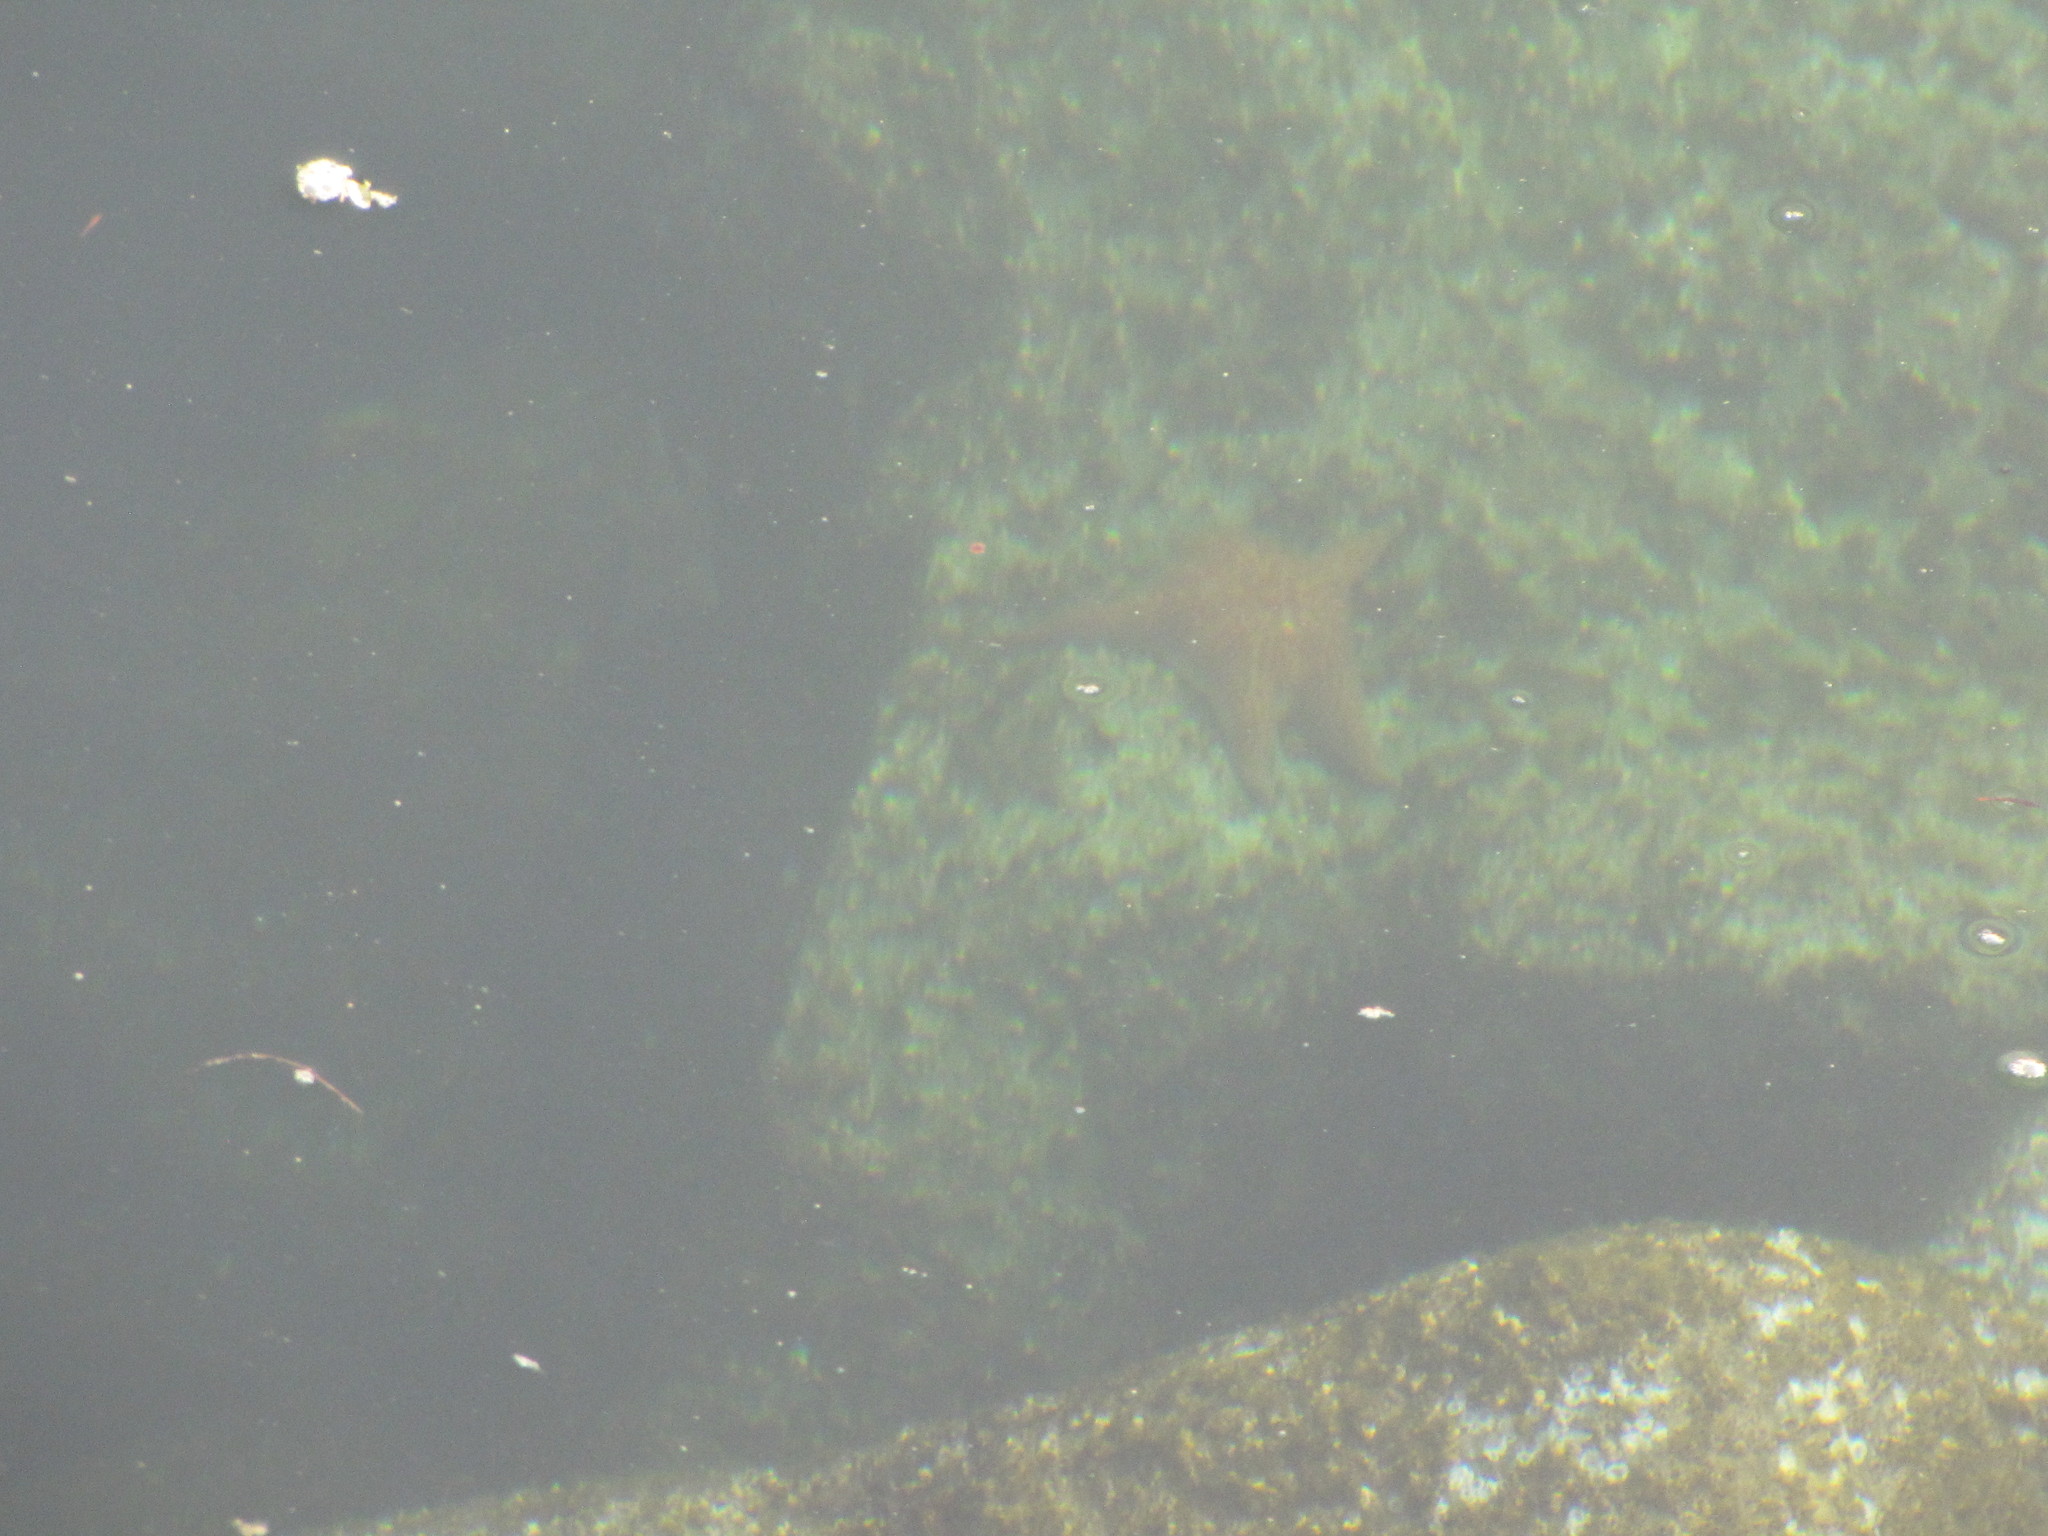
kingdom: Animalia
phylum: Echinodermata
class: Asteroidea
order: Valvatida
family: Asteropseidae
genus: Dermasterias
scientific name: Dermasterias imbricata
